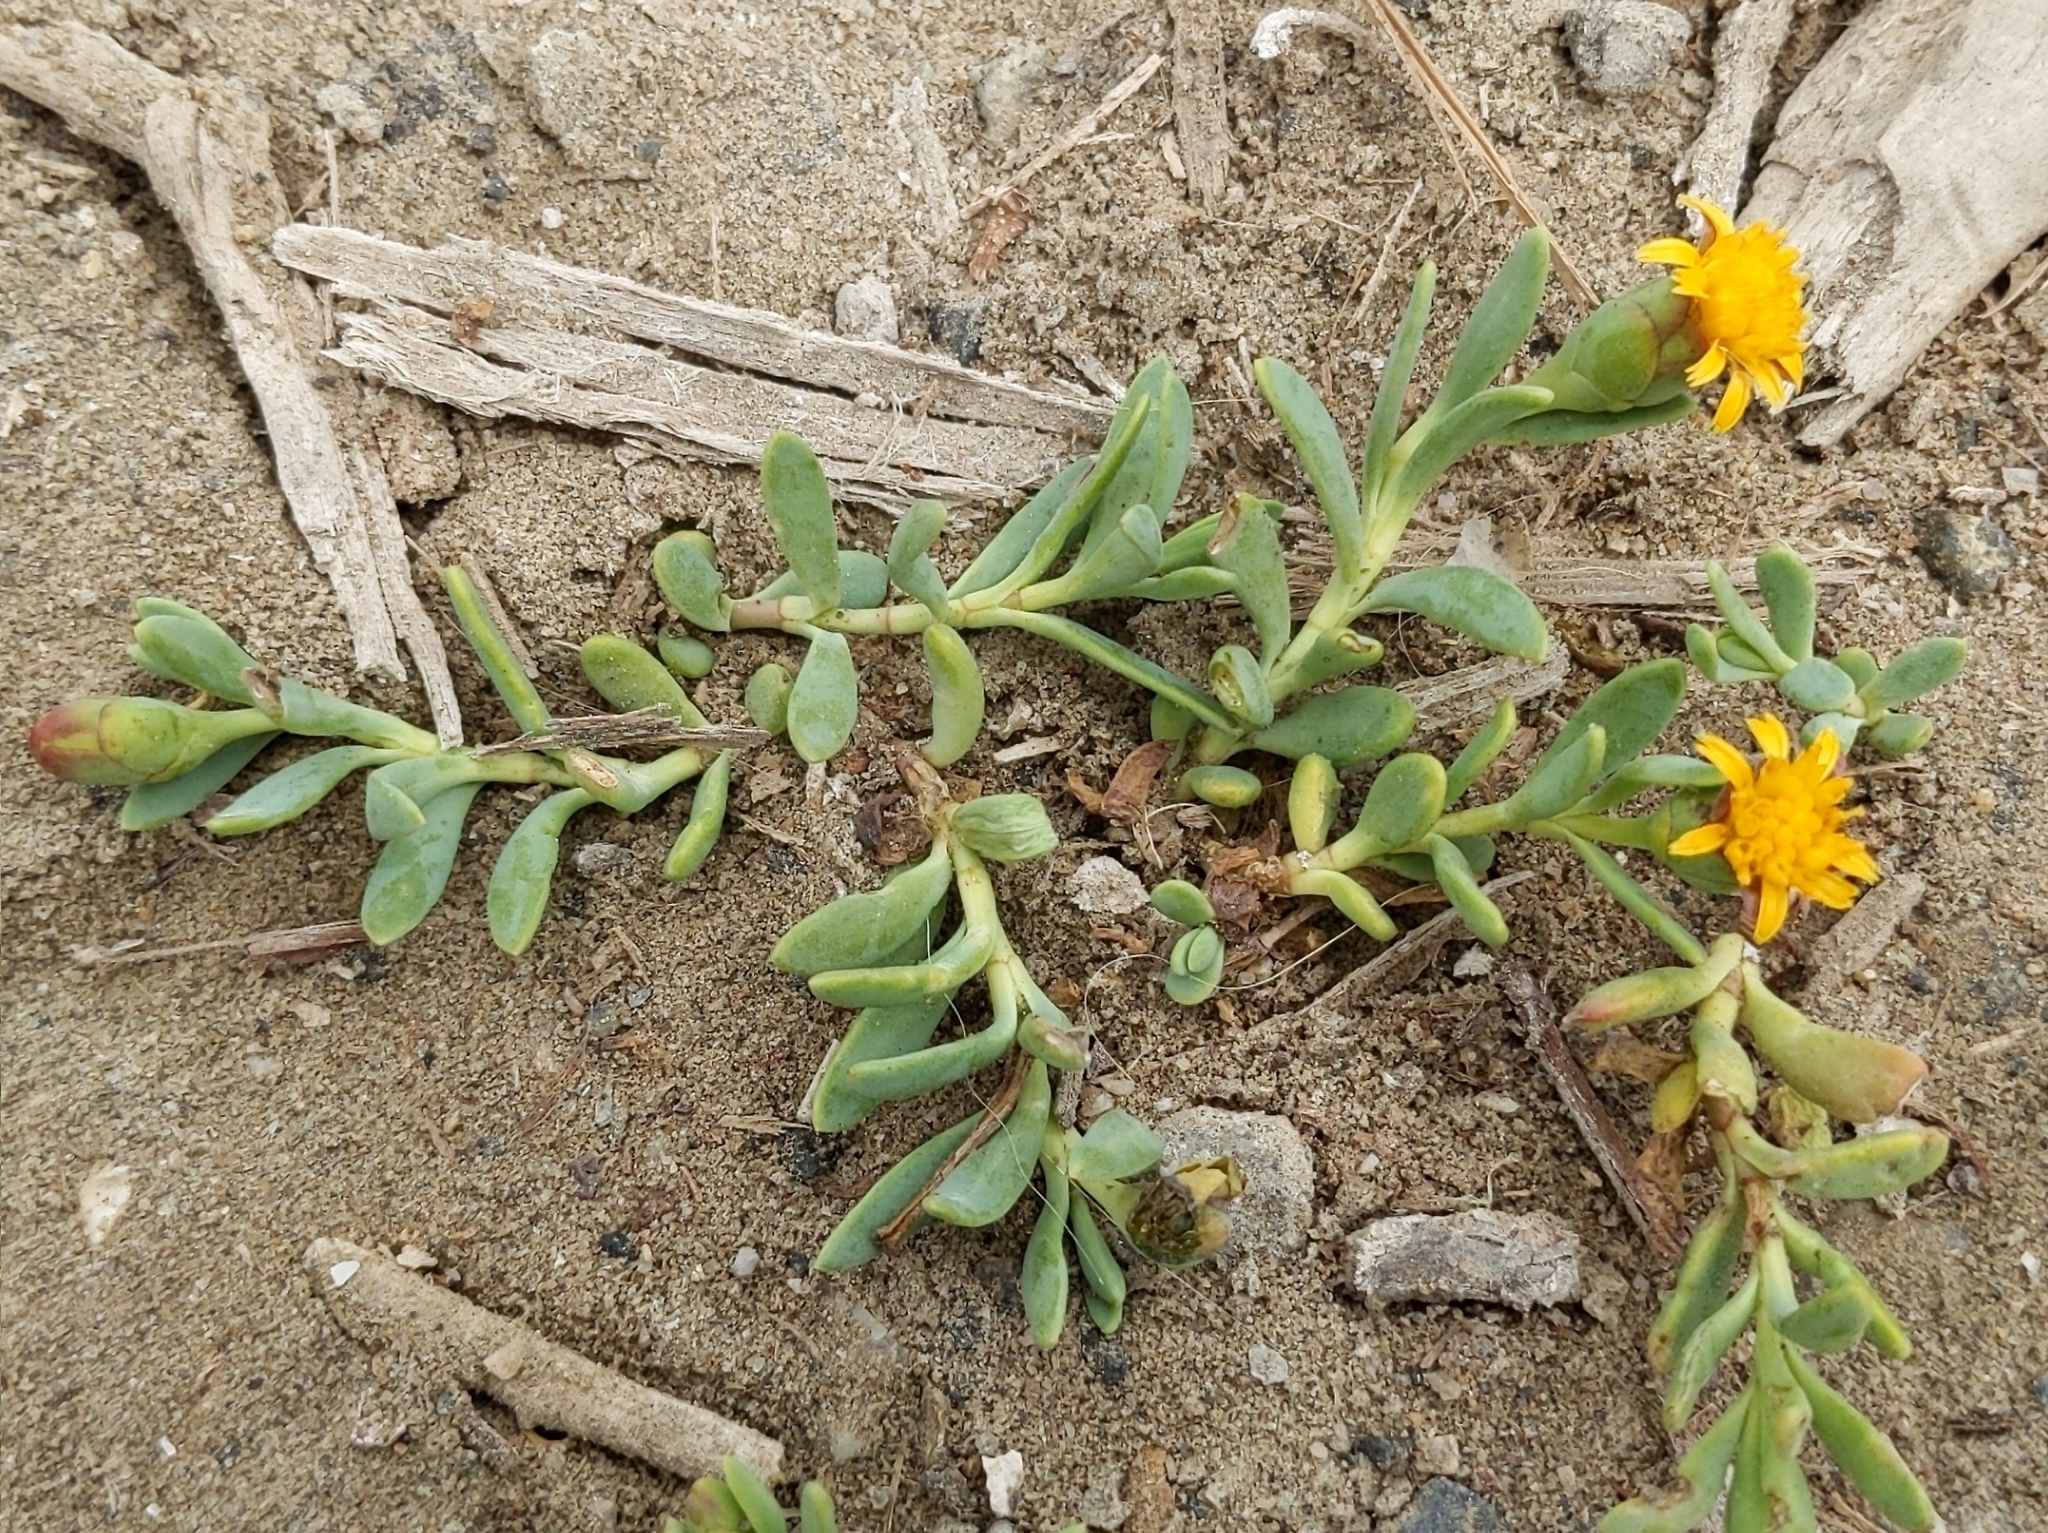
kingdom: Plantae
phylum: Tracheophyta
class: Magnoliopsida
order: Asterales
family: Asteraceae
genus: Jaumea
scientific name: Jaumea carnosa
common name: Fleshy jaumea
